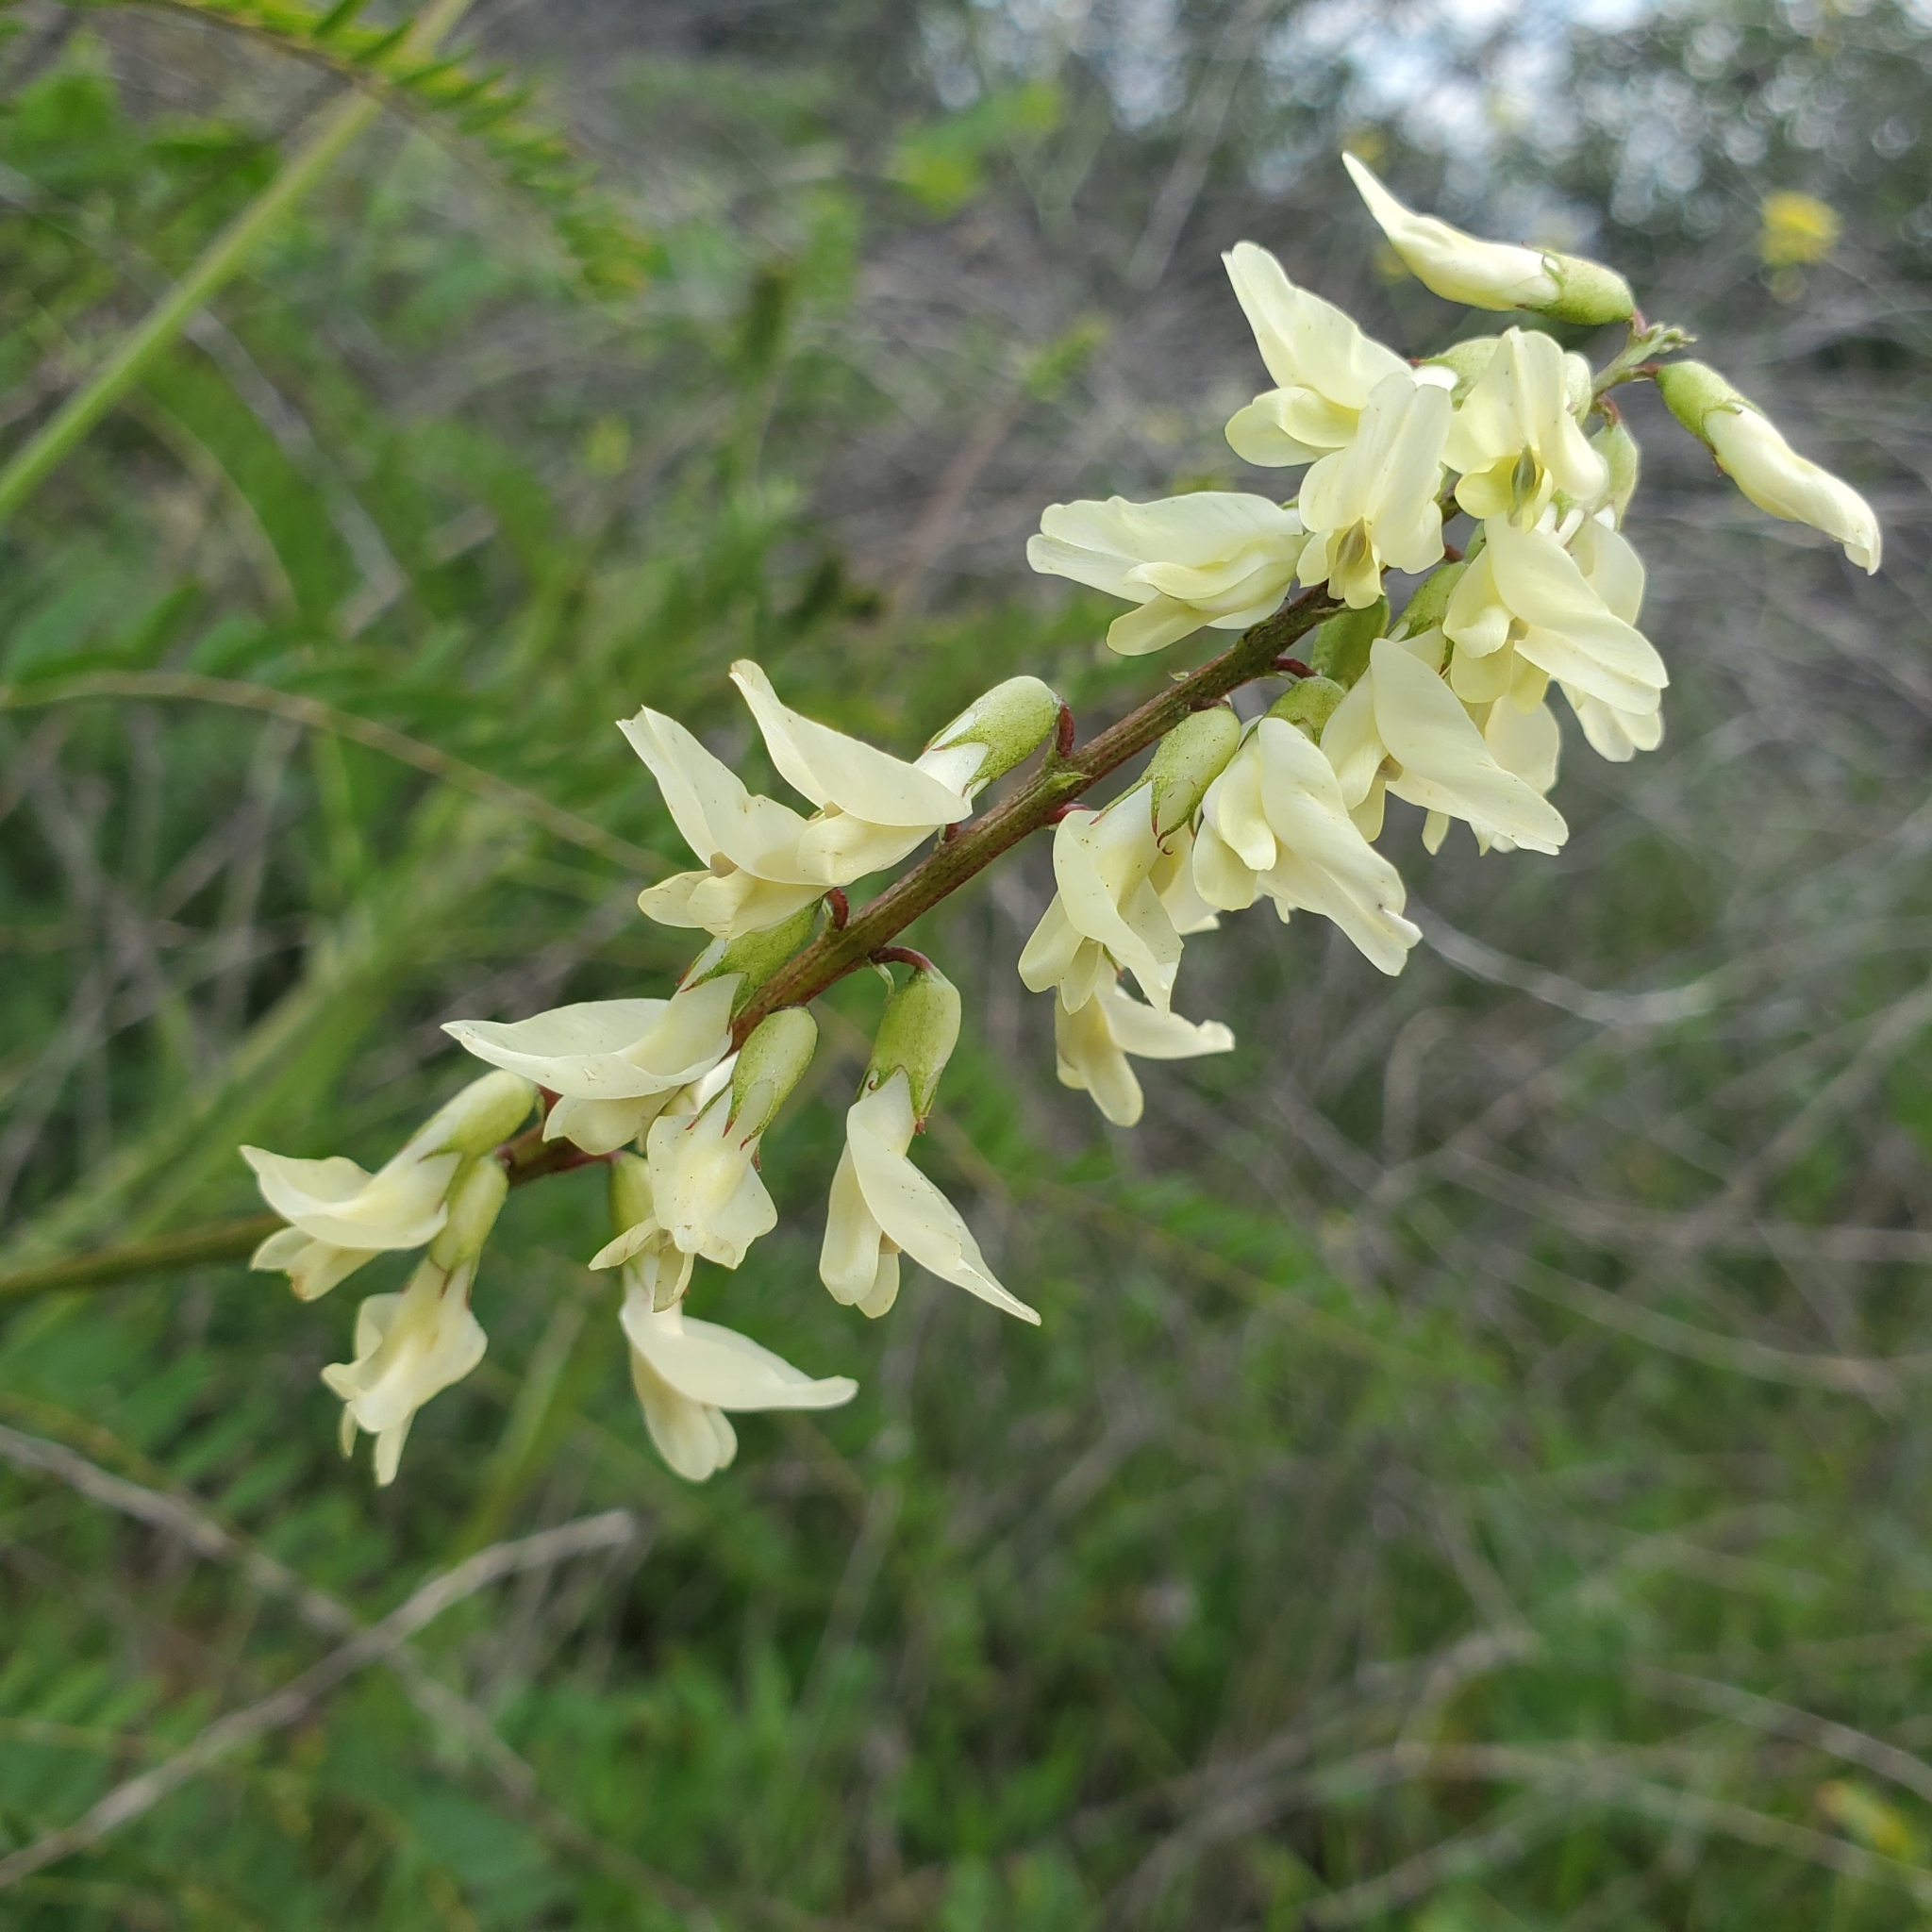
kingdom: Plantae
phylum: Tracheophyta
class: Magnoliopsida
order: Fabales
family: Fabaceae
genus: Astragalus
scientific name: Astragalus trichopodus
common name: Santa barbara milk-vetch
